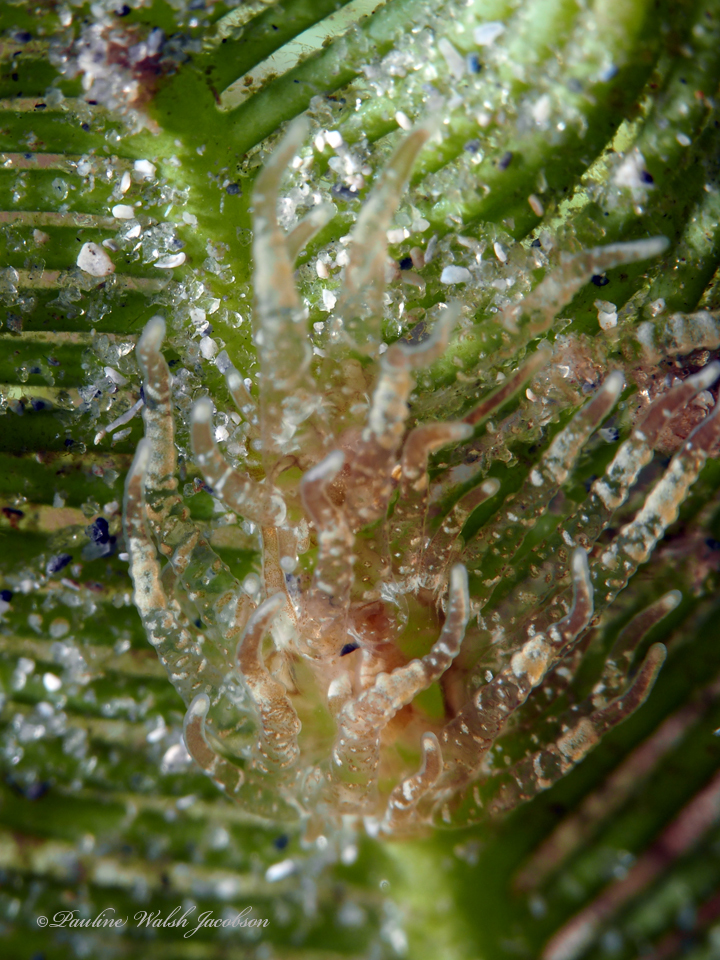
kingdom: Animalia
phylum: Cnidaria
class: Anthozoa
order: Actiniaria
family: Boloceroididae
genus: Bunodeopsis
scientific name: Bunodeopsis globulifera
